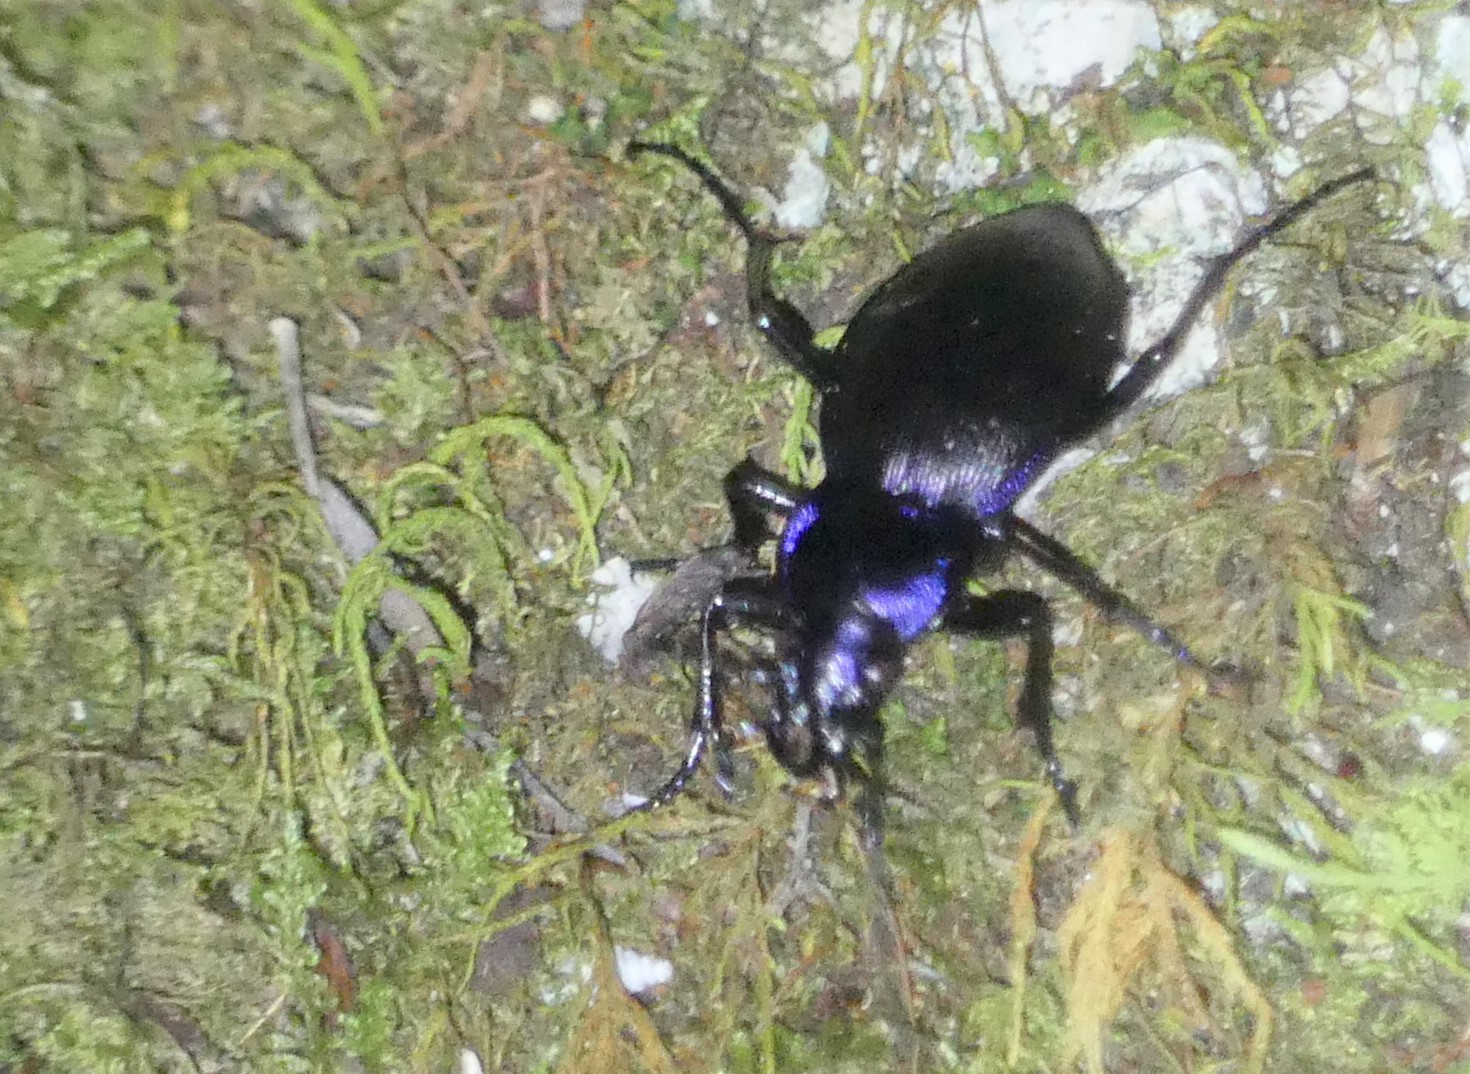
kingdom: Animalia
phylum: Arthropoda
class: Insecta
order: Coleoptera
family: Carabidae
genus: Carabus
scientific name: Carabus problematicus
